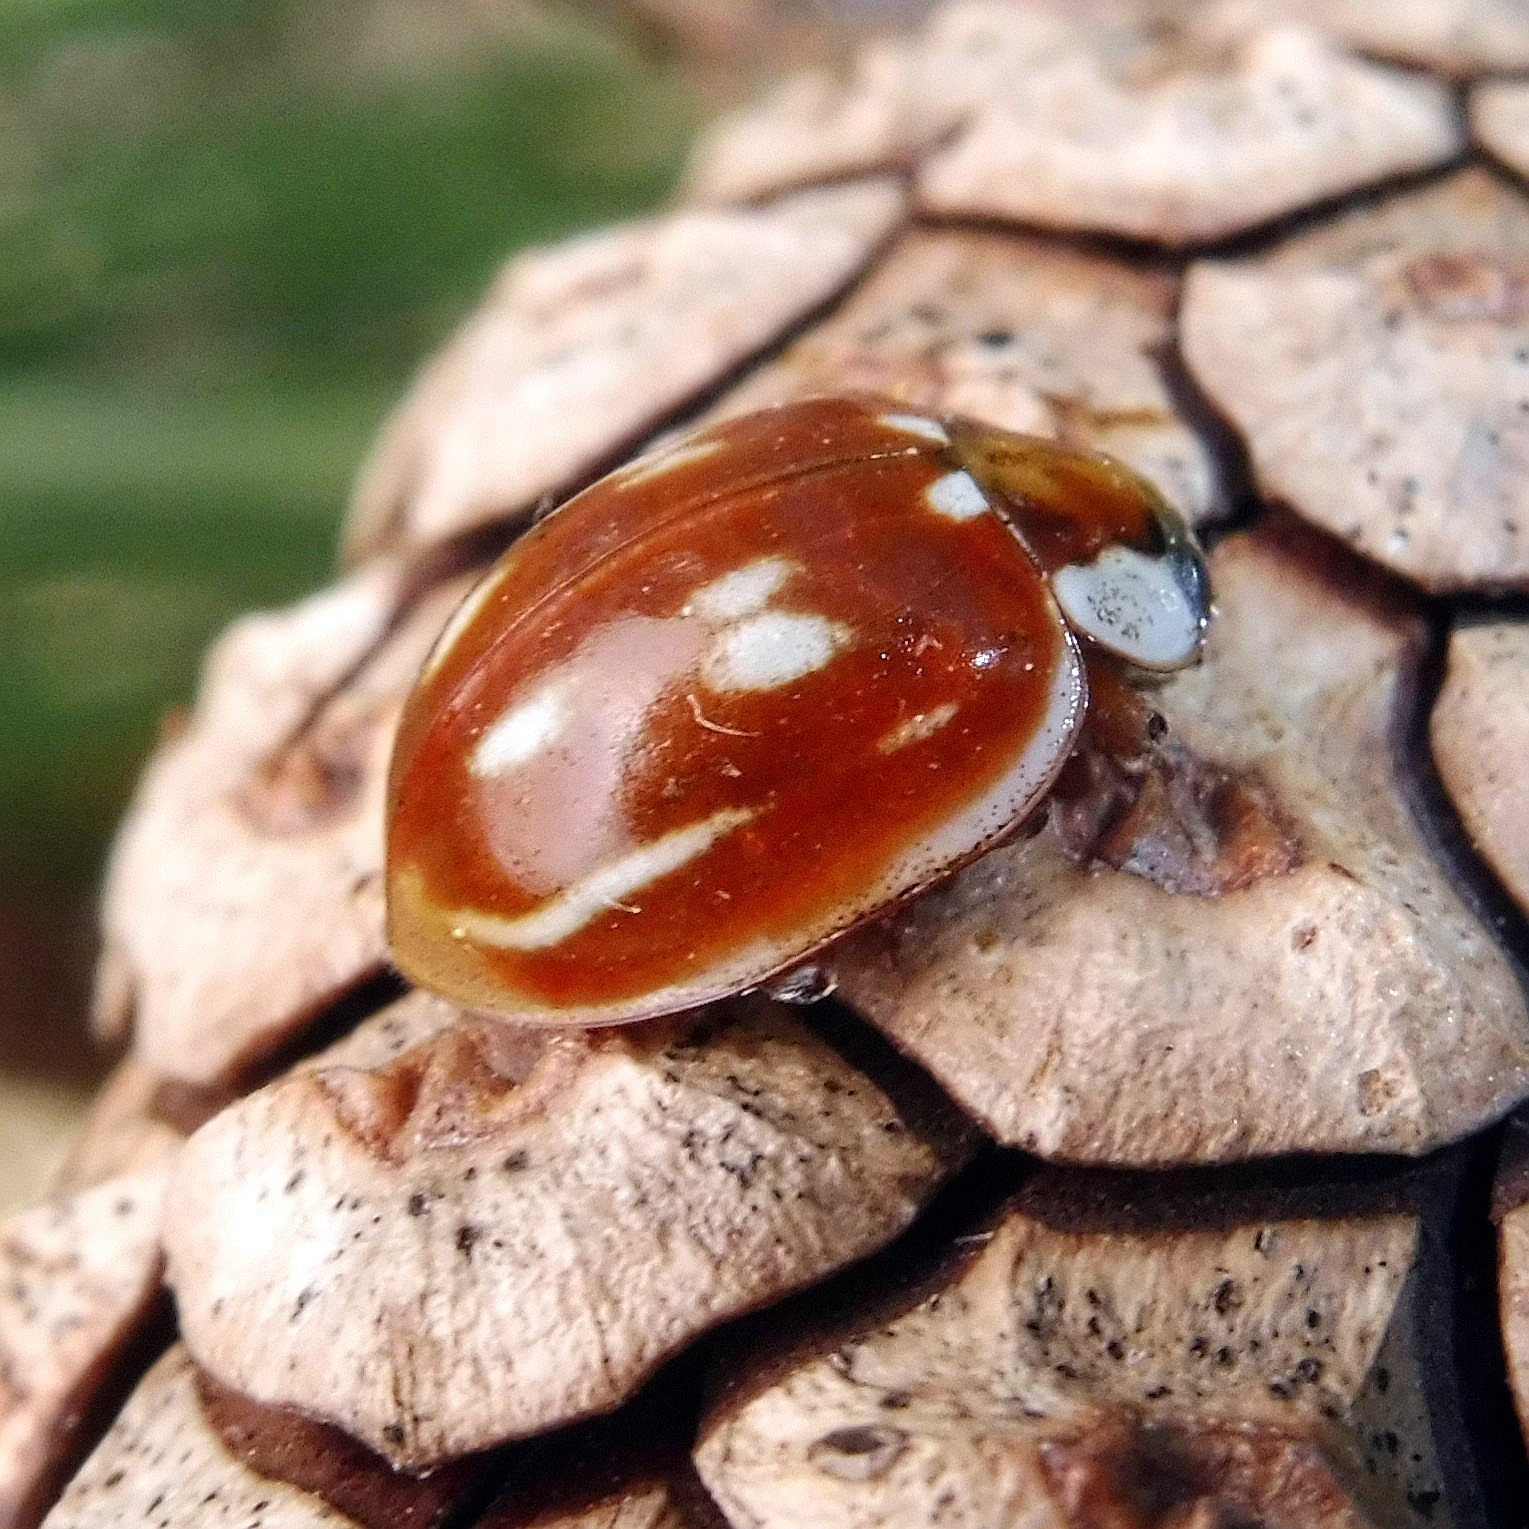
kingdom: Animalia
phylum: Arthropoda
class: Insecta
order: Coleoptera
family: Coccinellidae
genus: Myzia
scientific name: Myzia oblongoguttata
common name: Striped ladybird
